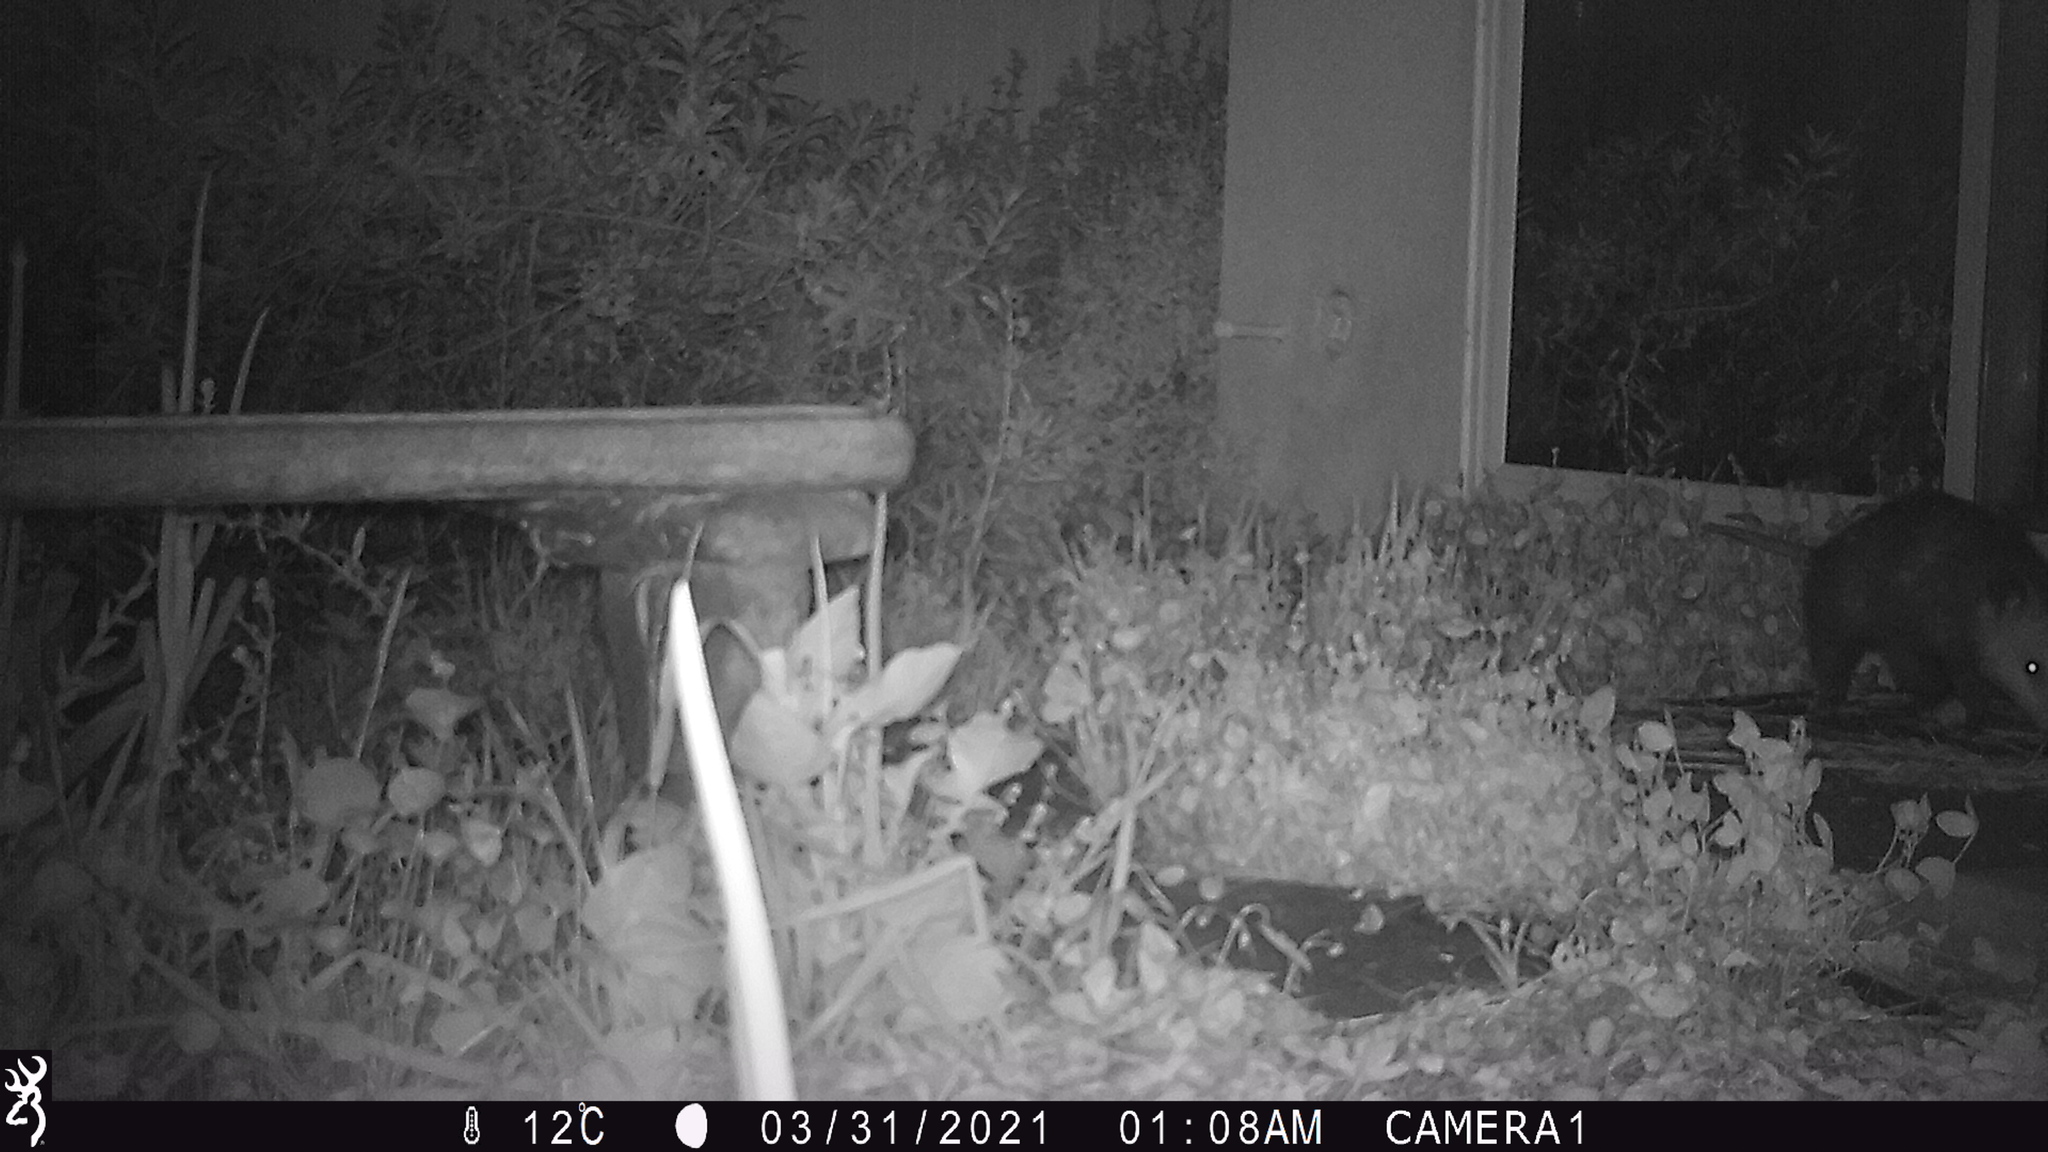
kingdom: Animalia
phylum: Chordata
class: Mammalia
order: Didelphimorphia
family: Didelphidae
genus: Didelphis
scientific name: Didelphis virginiana
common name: Virginia opossum
